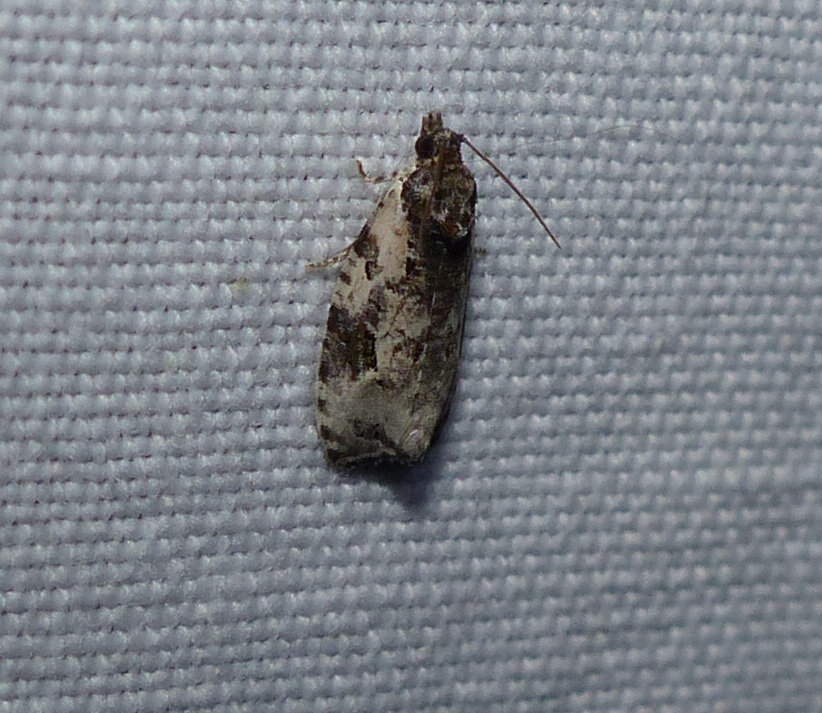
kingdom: Animalia
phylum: Arthropoda
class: Insecta
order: Lepidoptera
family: Tortricidae
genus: Apotomis
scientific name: Apotomis albeolana
